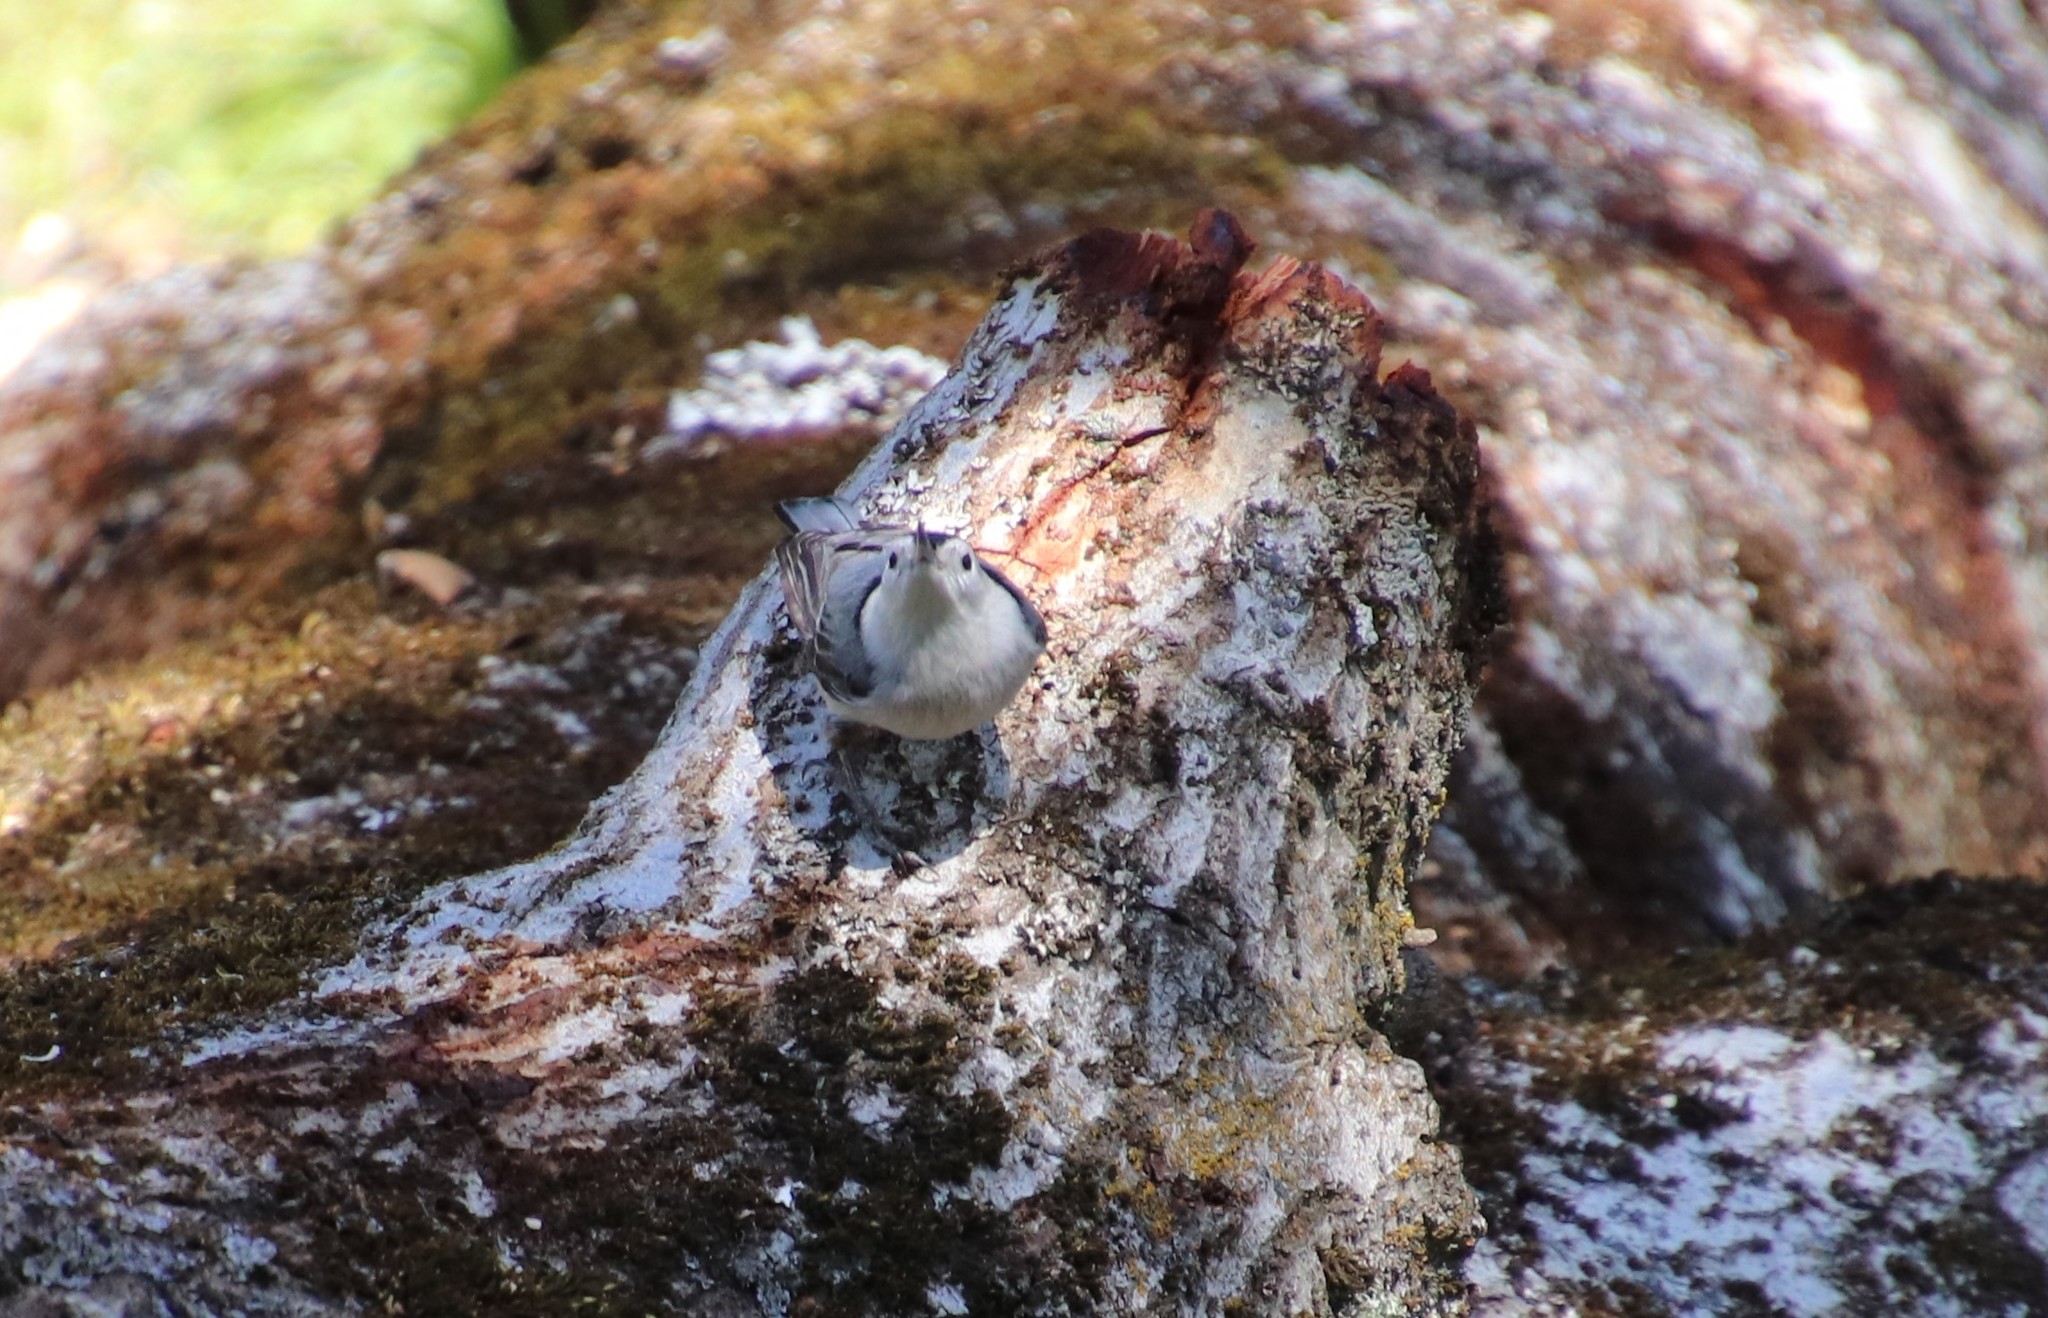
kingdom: Animalia
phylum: Chordata
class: Aves
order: Passeriformes
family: Sittidae
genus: Sitta
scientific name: Sitta carolinensis
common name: White-breasted nuthatch
